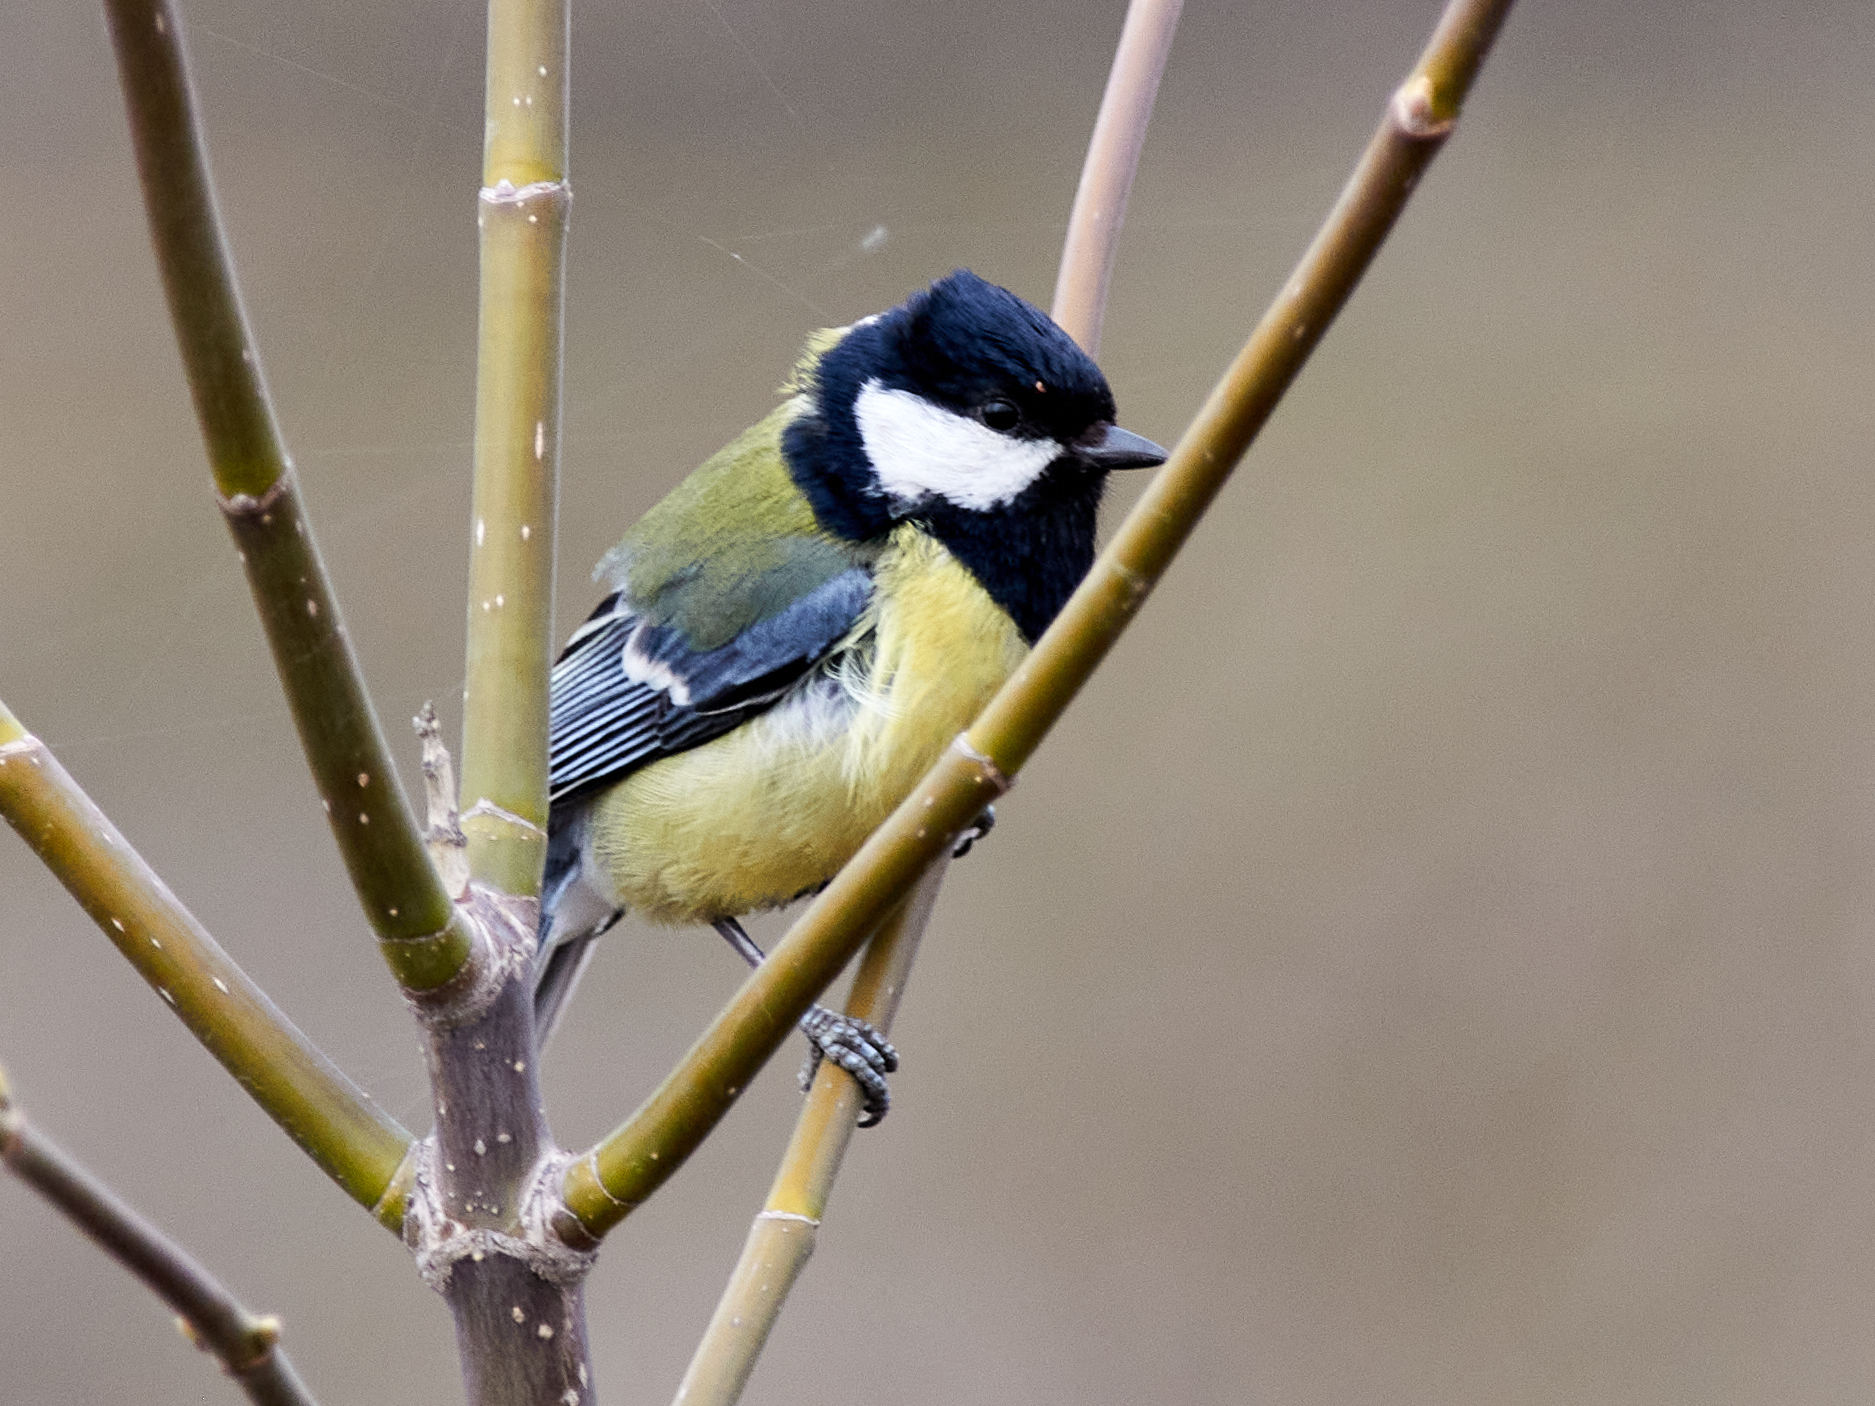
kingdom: Animalia
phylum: Chordata
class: Aves
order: Passeriformes
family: Paridae
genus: Parus
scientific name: Parus major
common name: Great tit
